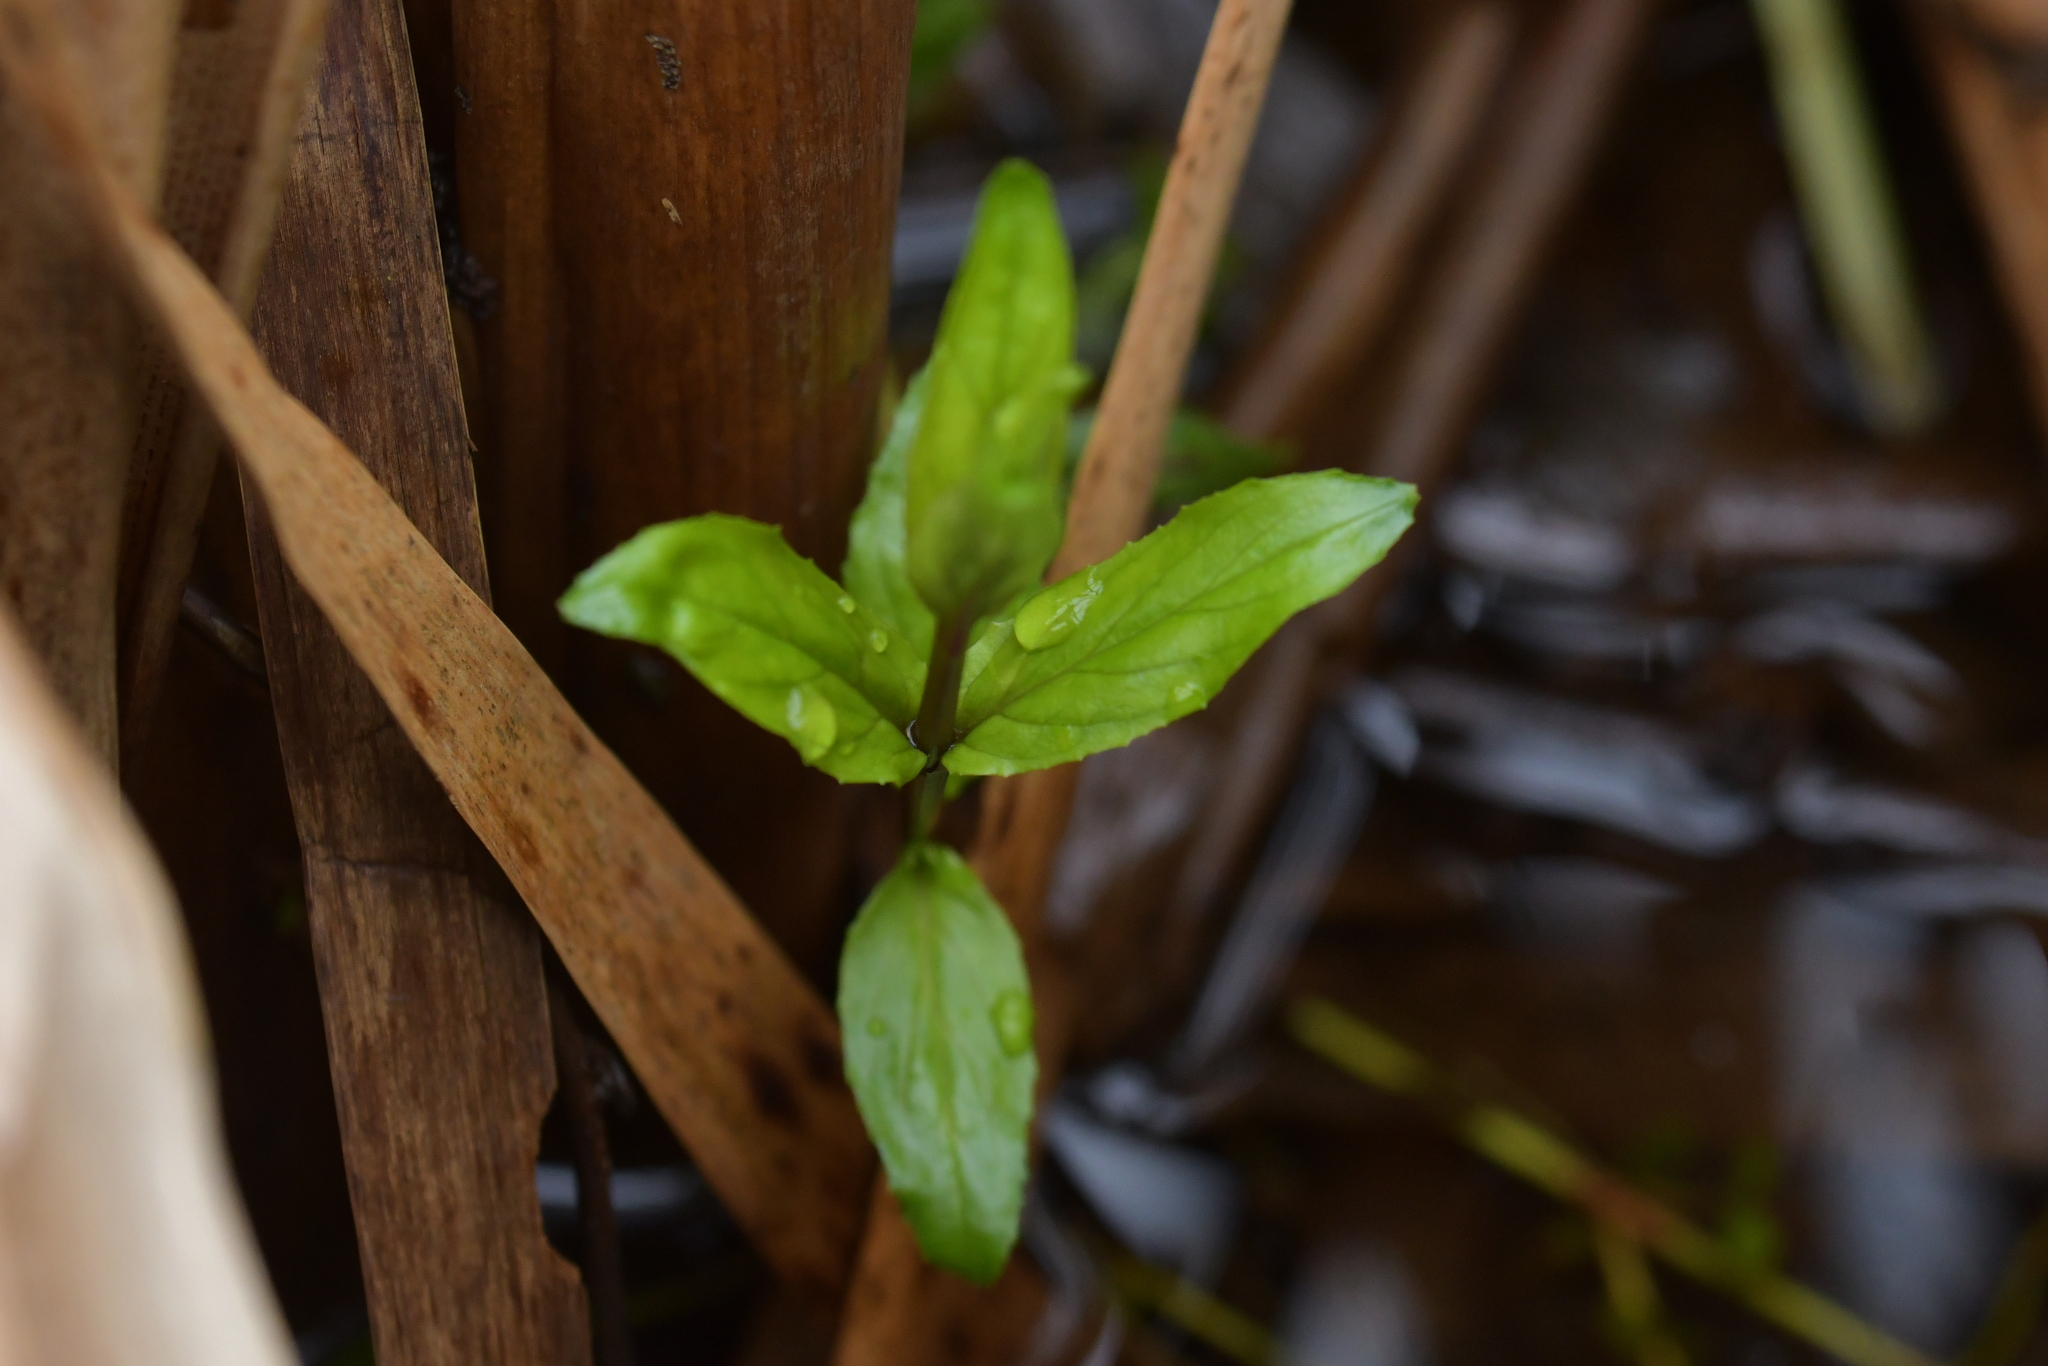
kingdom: Plantae
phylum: Tracheophyta
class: Magnoliopsida
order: Myrtales
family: Onagraceae
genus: Epilobium
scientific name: Epilobium pallidiflorum
